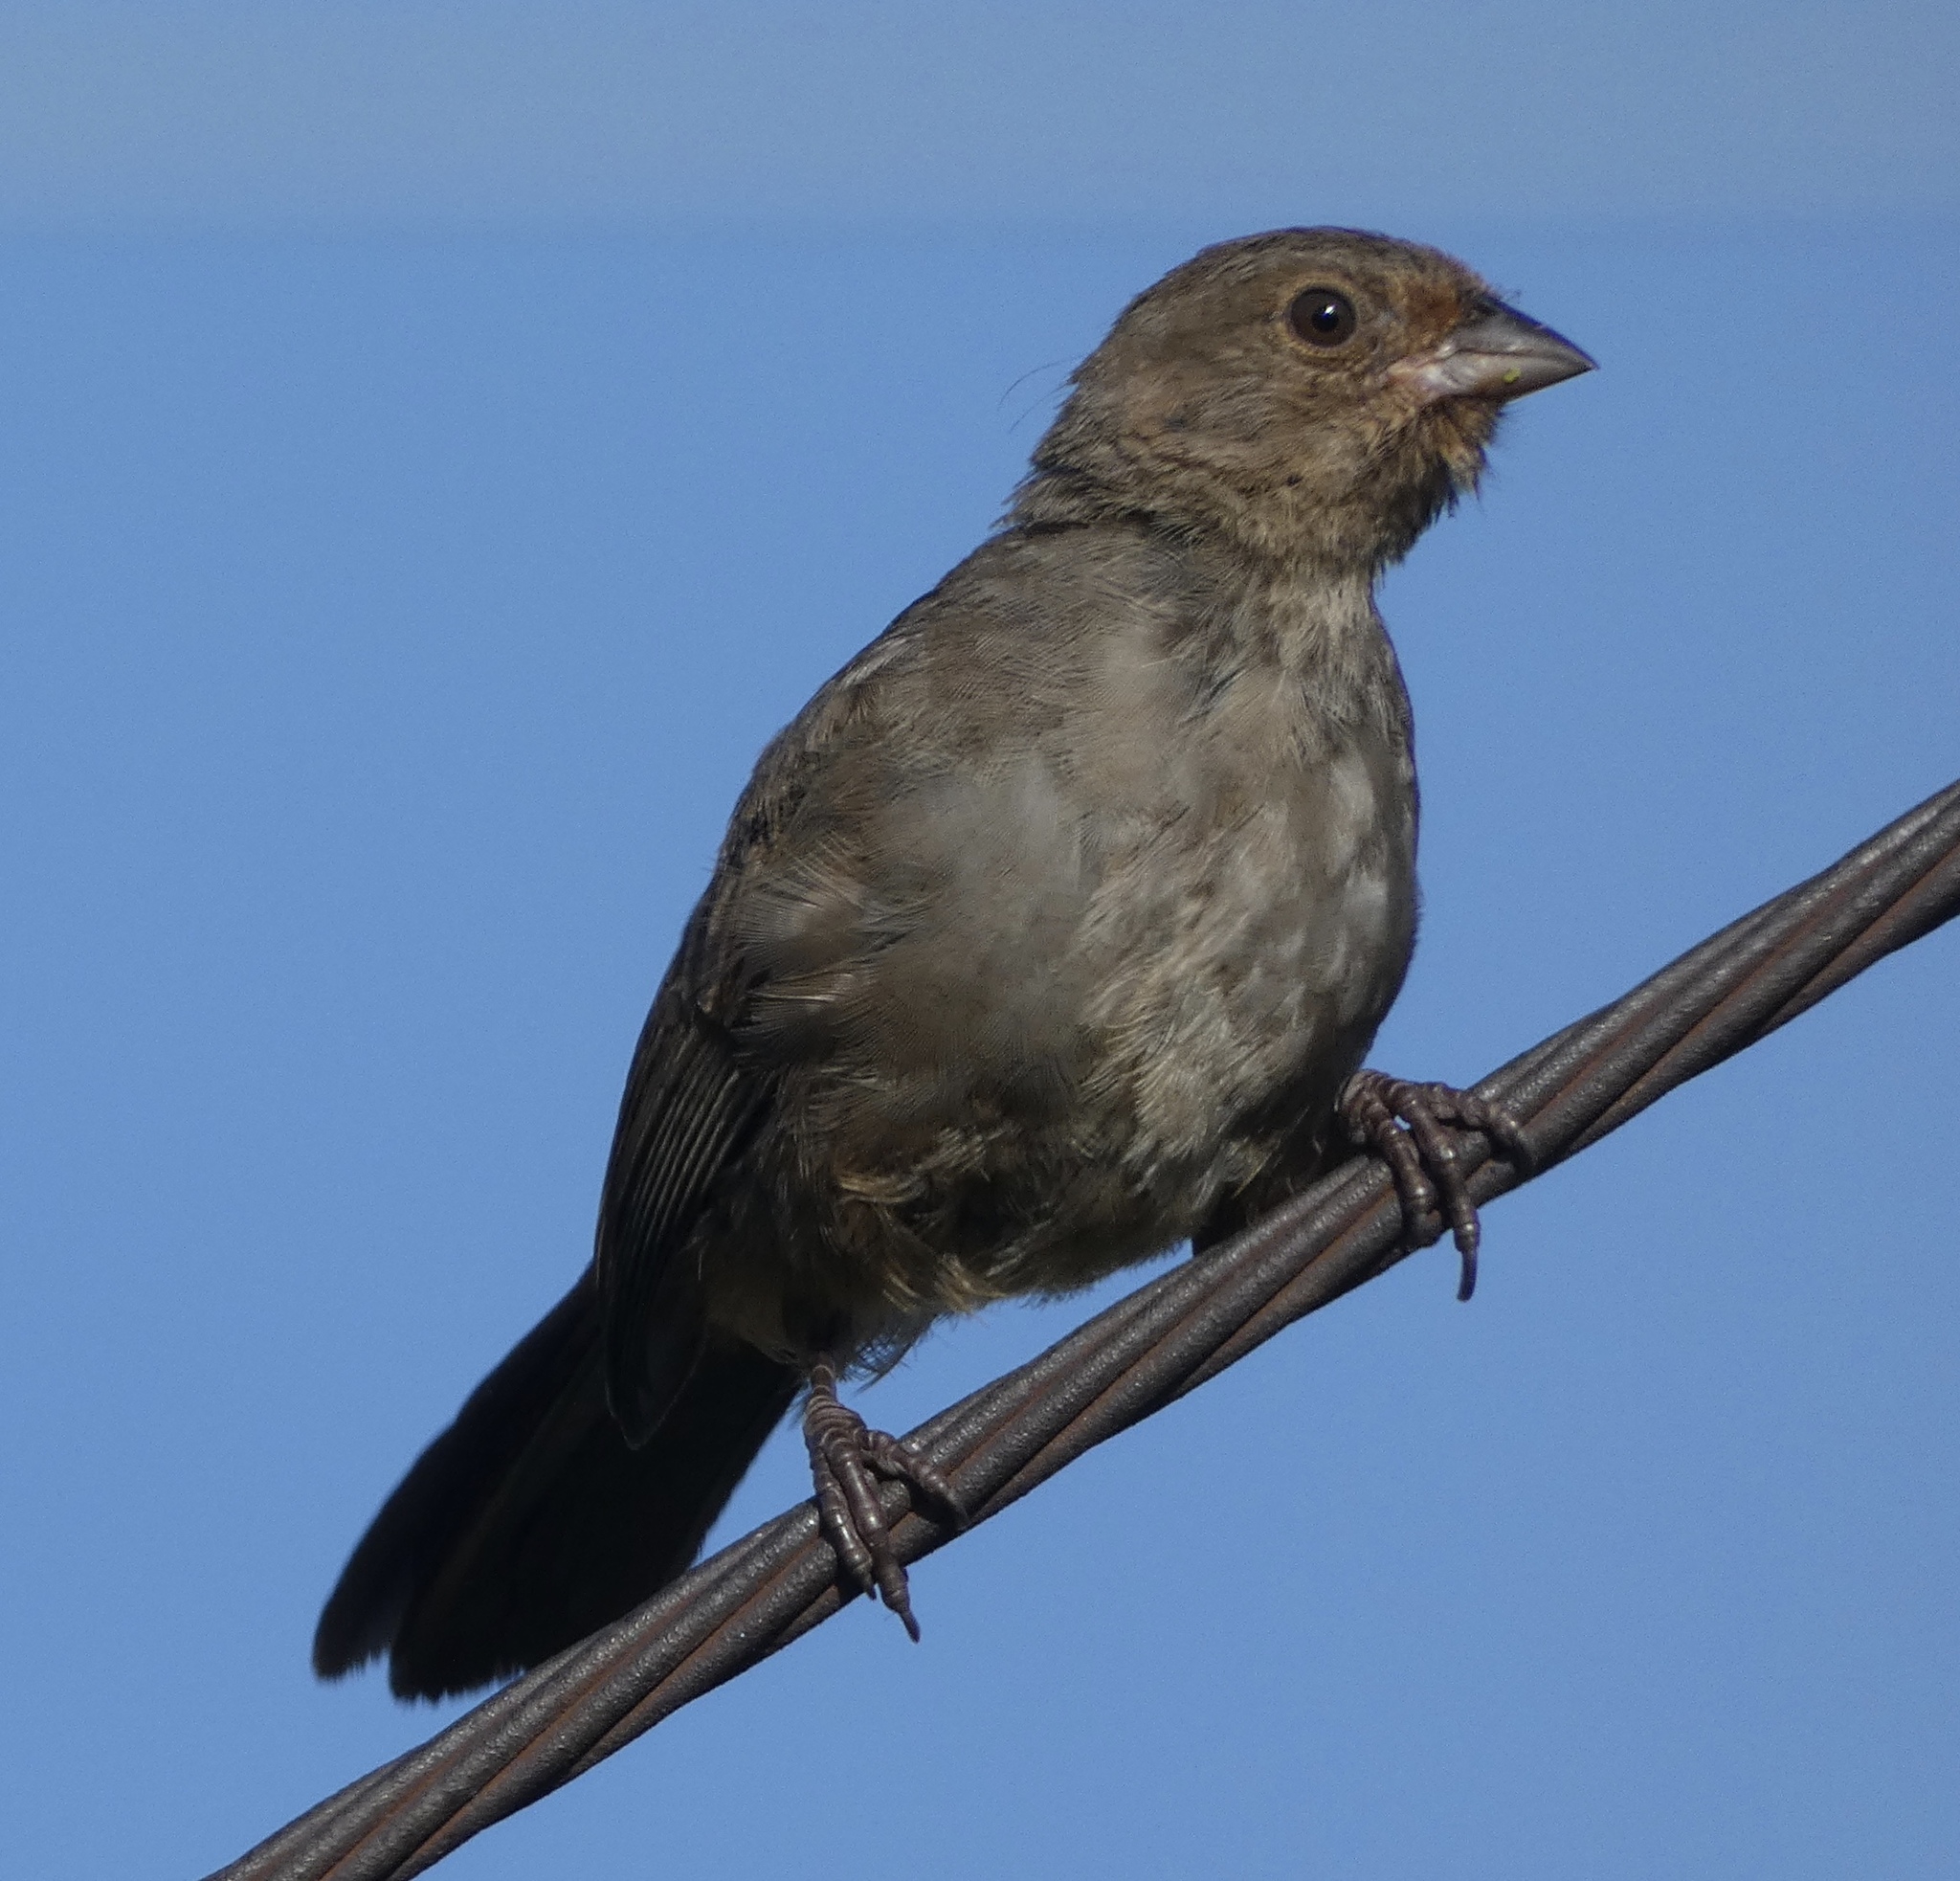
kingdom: Animalia
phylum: Chordata
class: Aves
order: Passeriformes
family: Passerellidae
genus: Melozone
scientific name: Melozone crissalis
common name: California towhee
